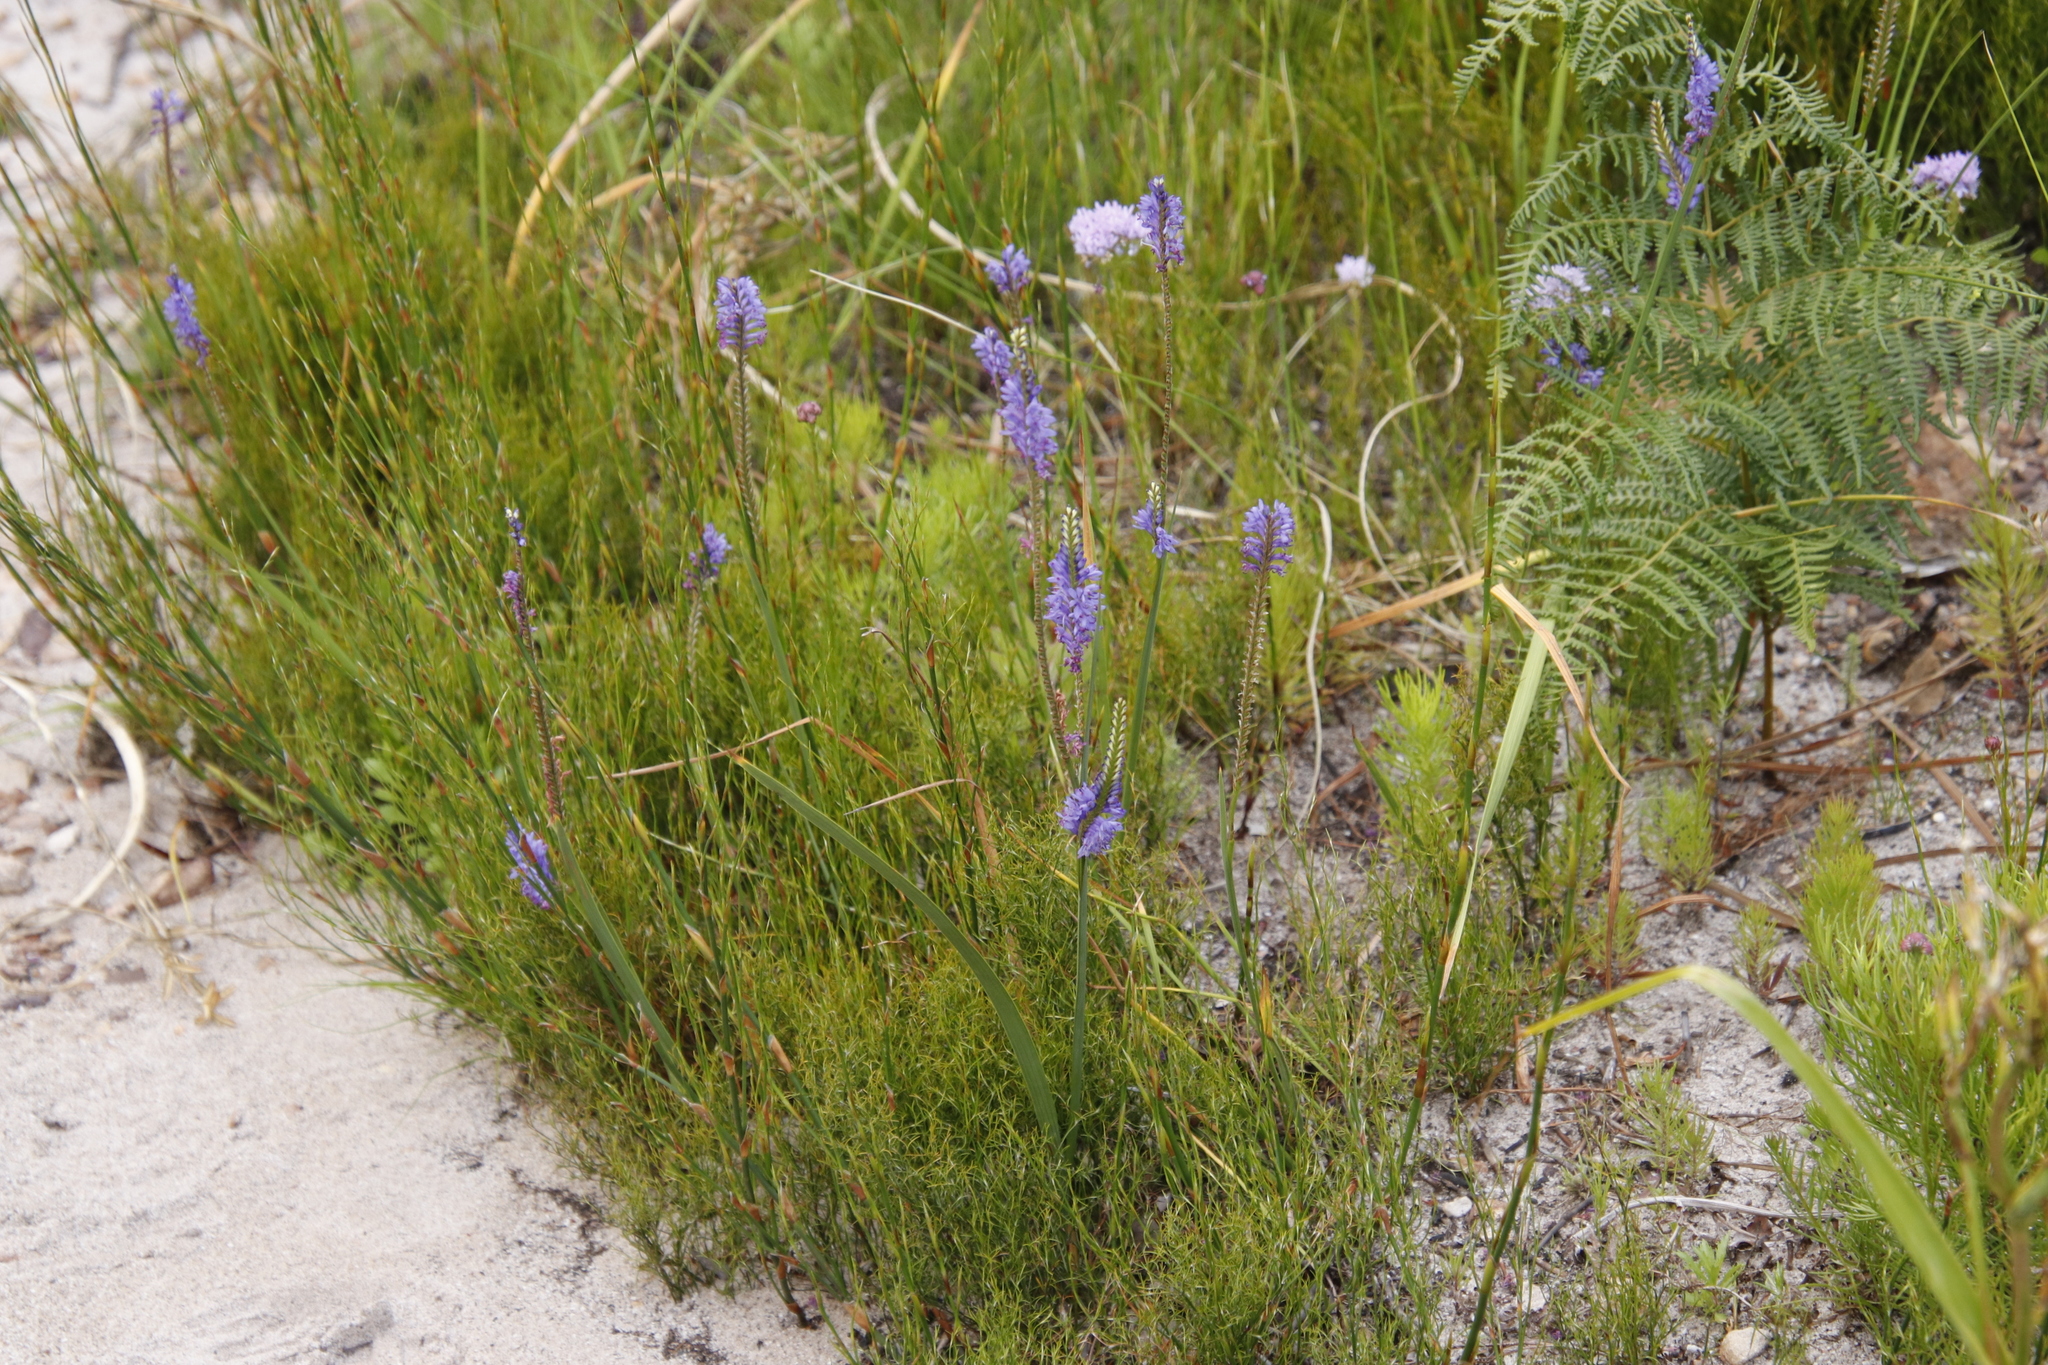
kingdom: Plantae
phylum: Tracheophyta
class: Liliopsida
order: Asparagales
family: Iridaceae
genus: Micranthus
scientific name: Micranthus plantagineus
